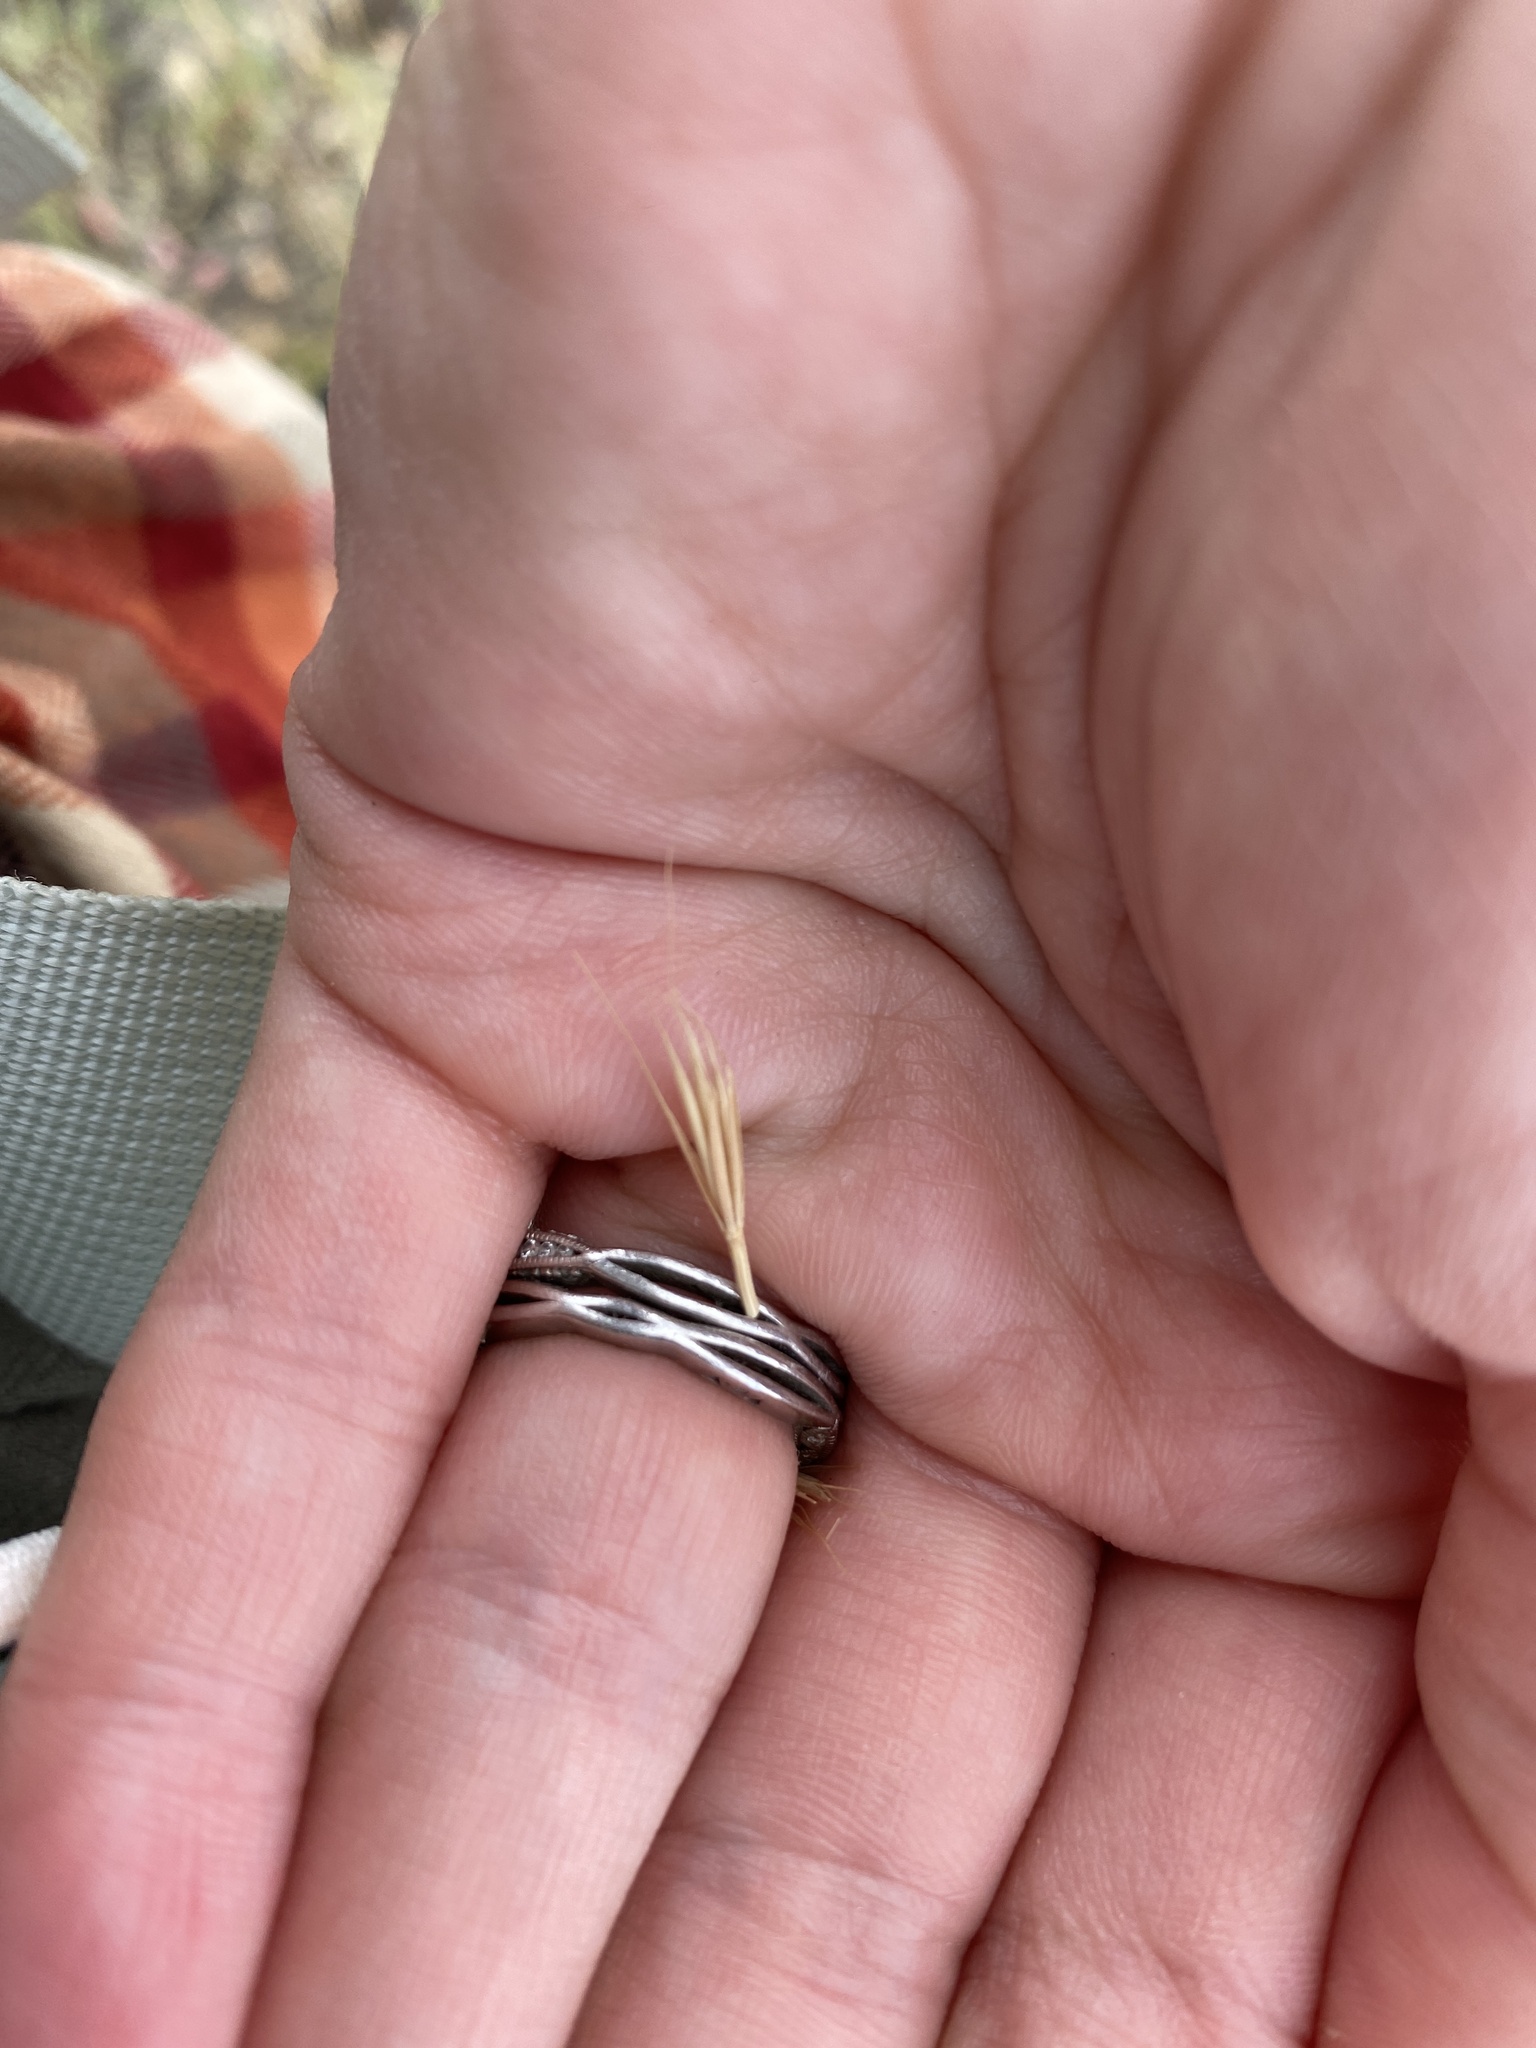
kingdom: Plantae
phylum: Tracheophyta
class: Liliopsida
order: Poales
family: Poaceae
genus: Elyhordeum
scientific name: Elyhordeum macounii
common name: Macoun's barley
